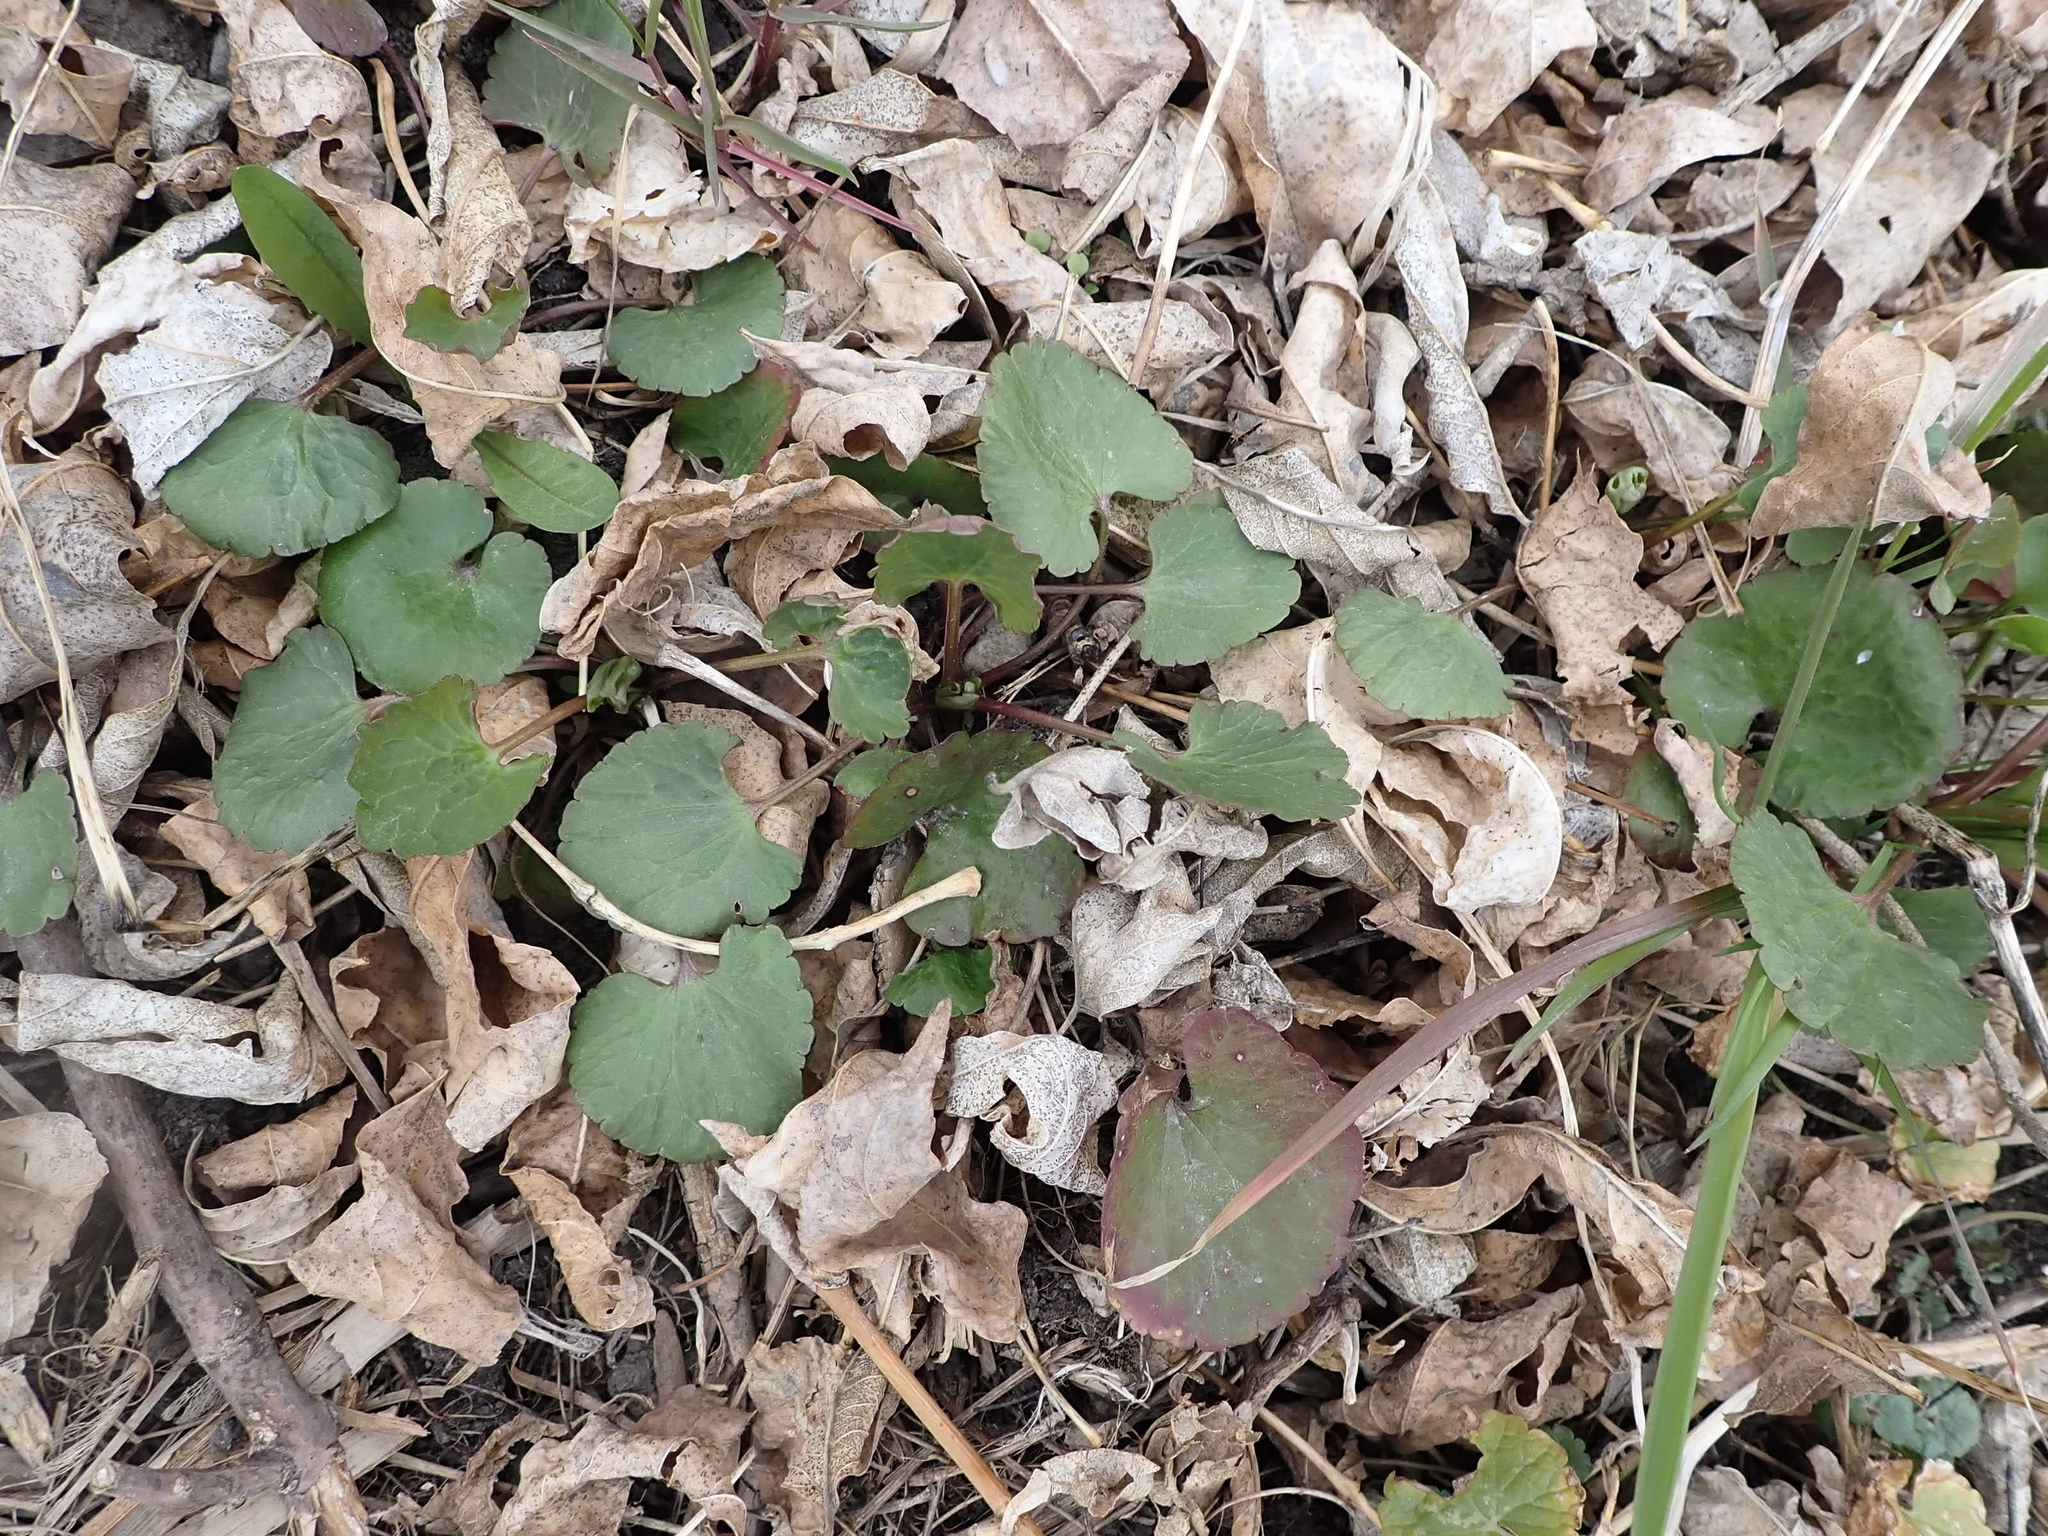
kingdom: Plantae
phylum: Tracheophyta
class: Magnoliopsida
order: Ranunculales
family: Ranunculaceae
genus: Ranunculus
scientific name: Ranunculus abortivus
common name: Early wood buttercup
